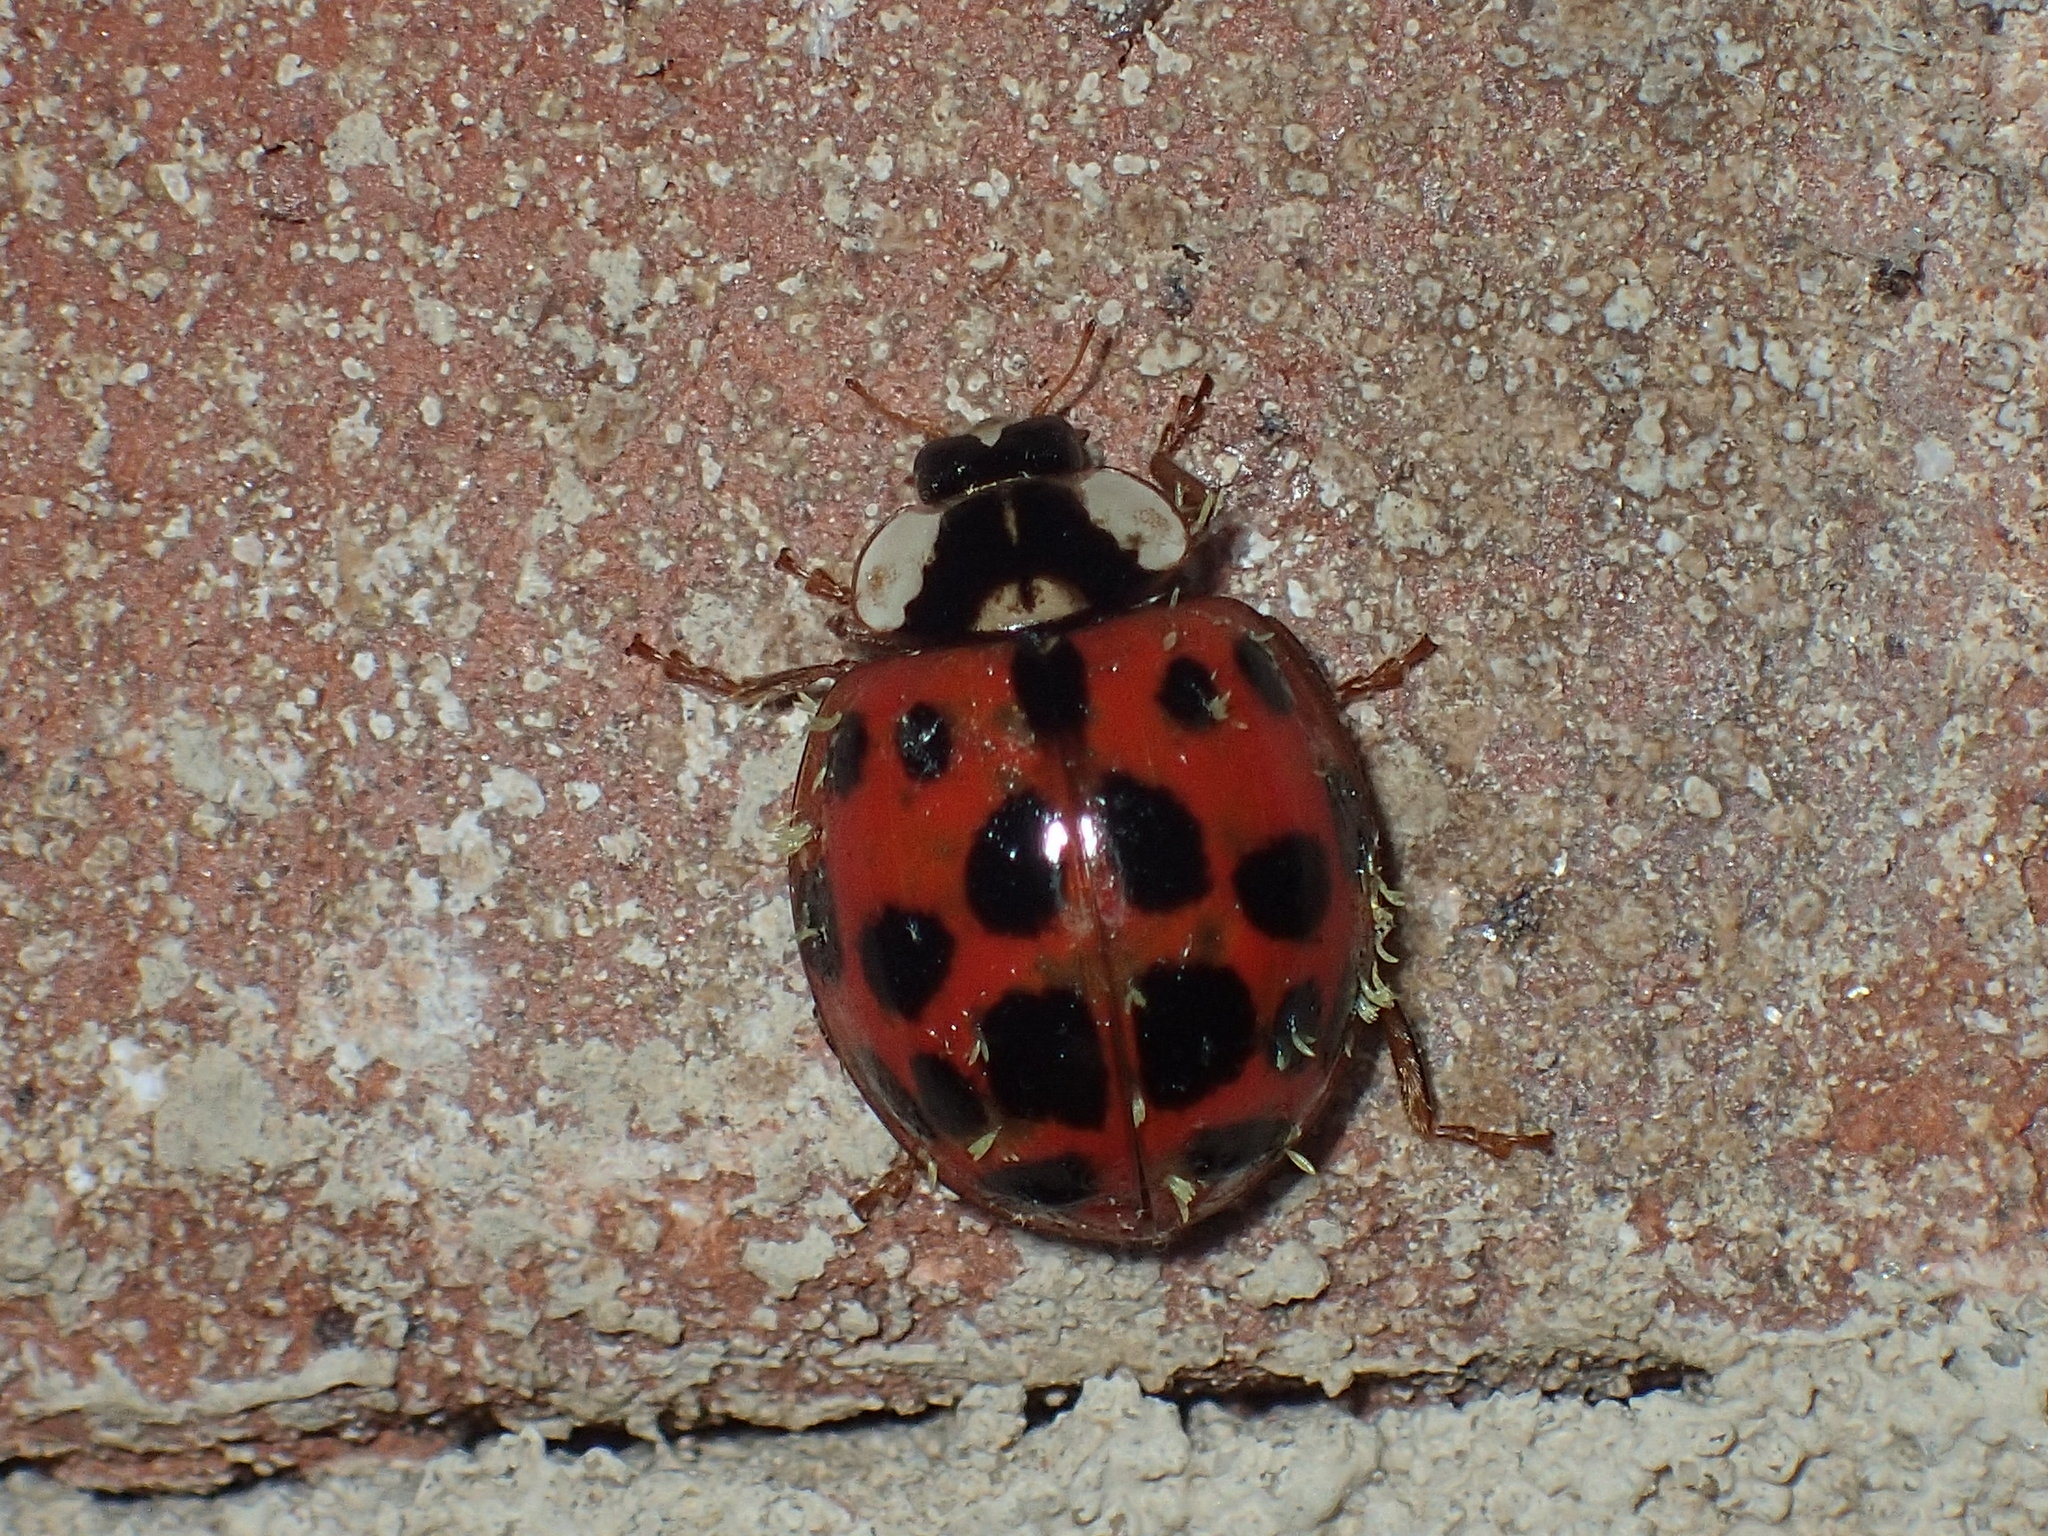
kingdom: Animalia
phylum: Arthropoda
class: Insecta
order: Coleoptera
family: Coccinellidae
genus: Harmonia
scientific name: Harmonia axyridis
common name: Harlequin ladybird
